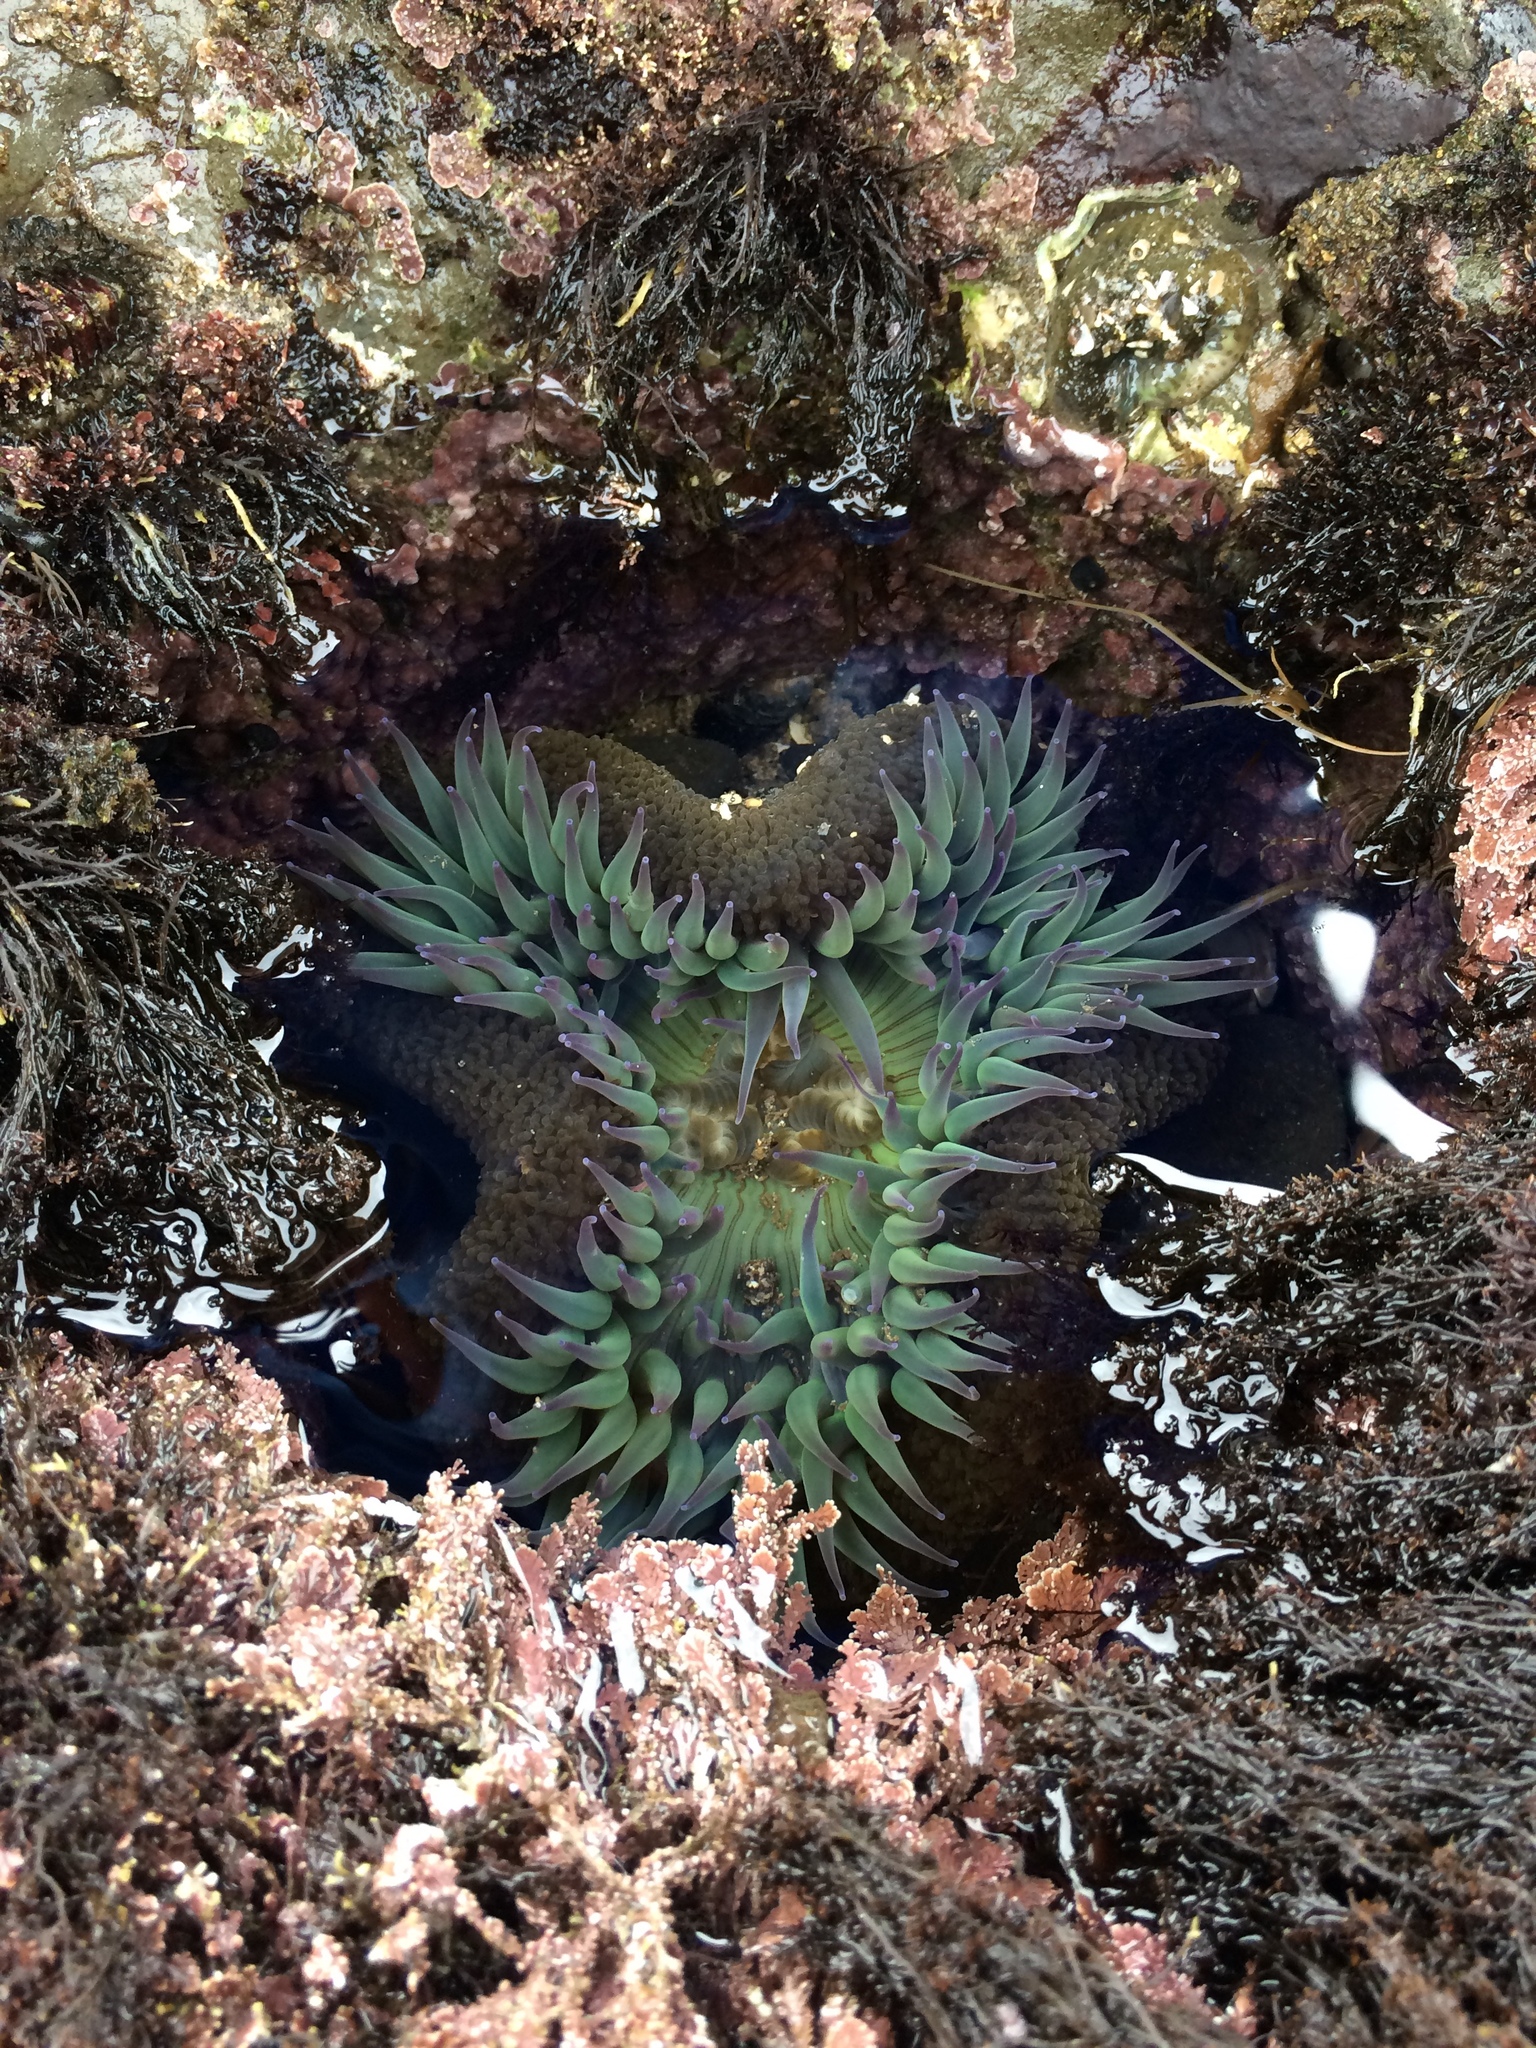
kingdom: Animalia
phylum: Cnidaria
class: Anthozoa
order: Actiniaria
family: Actiniidae
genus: Anthopleura
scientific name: Anthopleura sola
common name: Sun anemone
